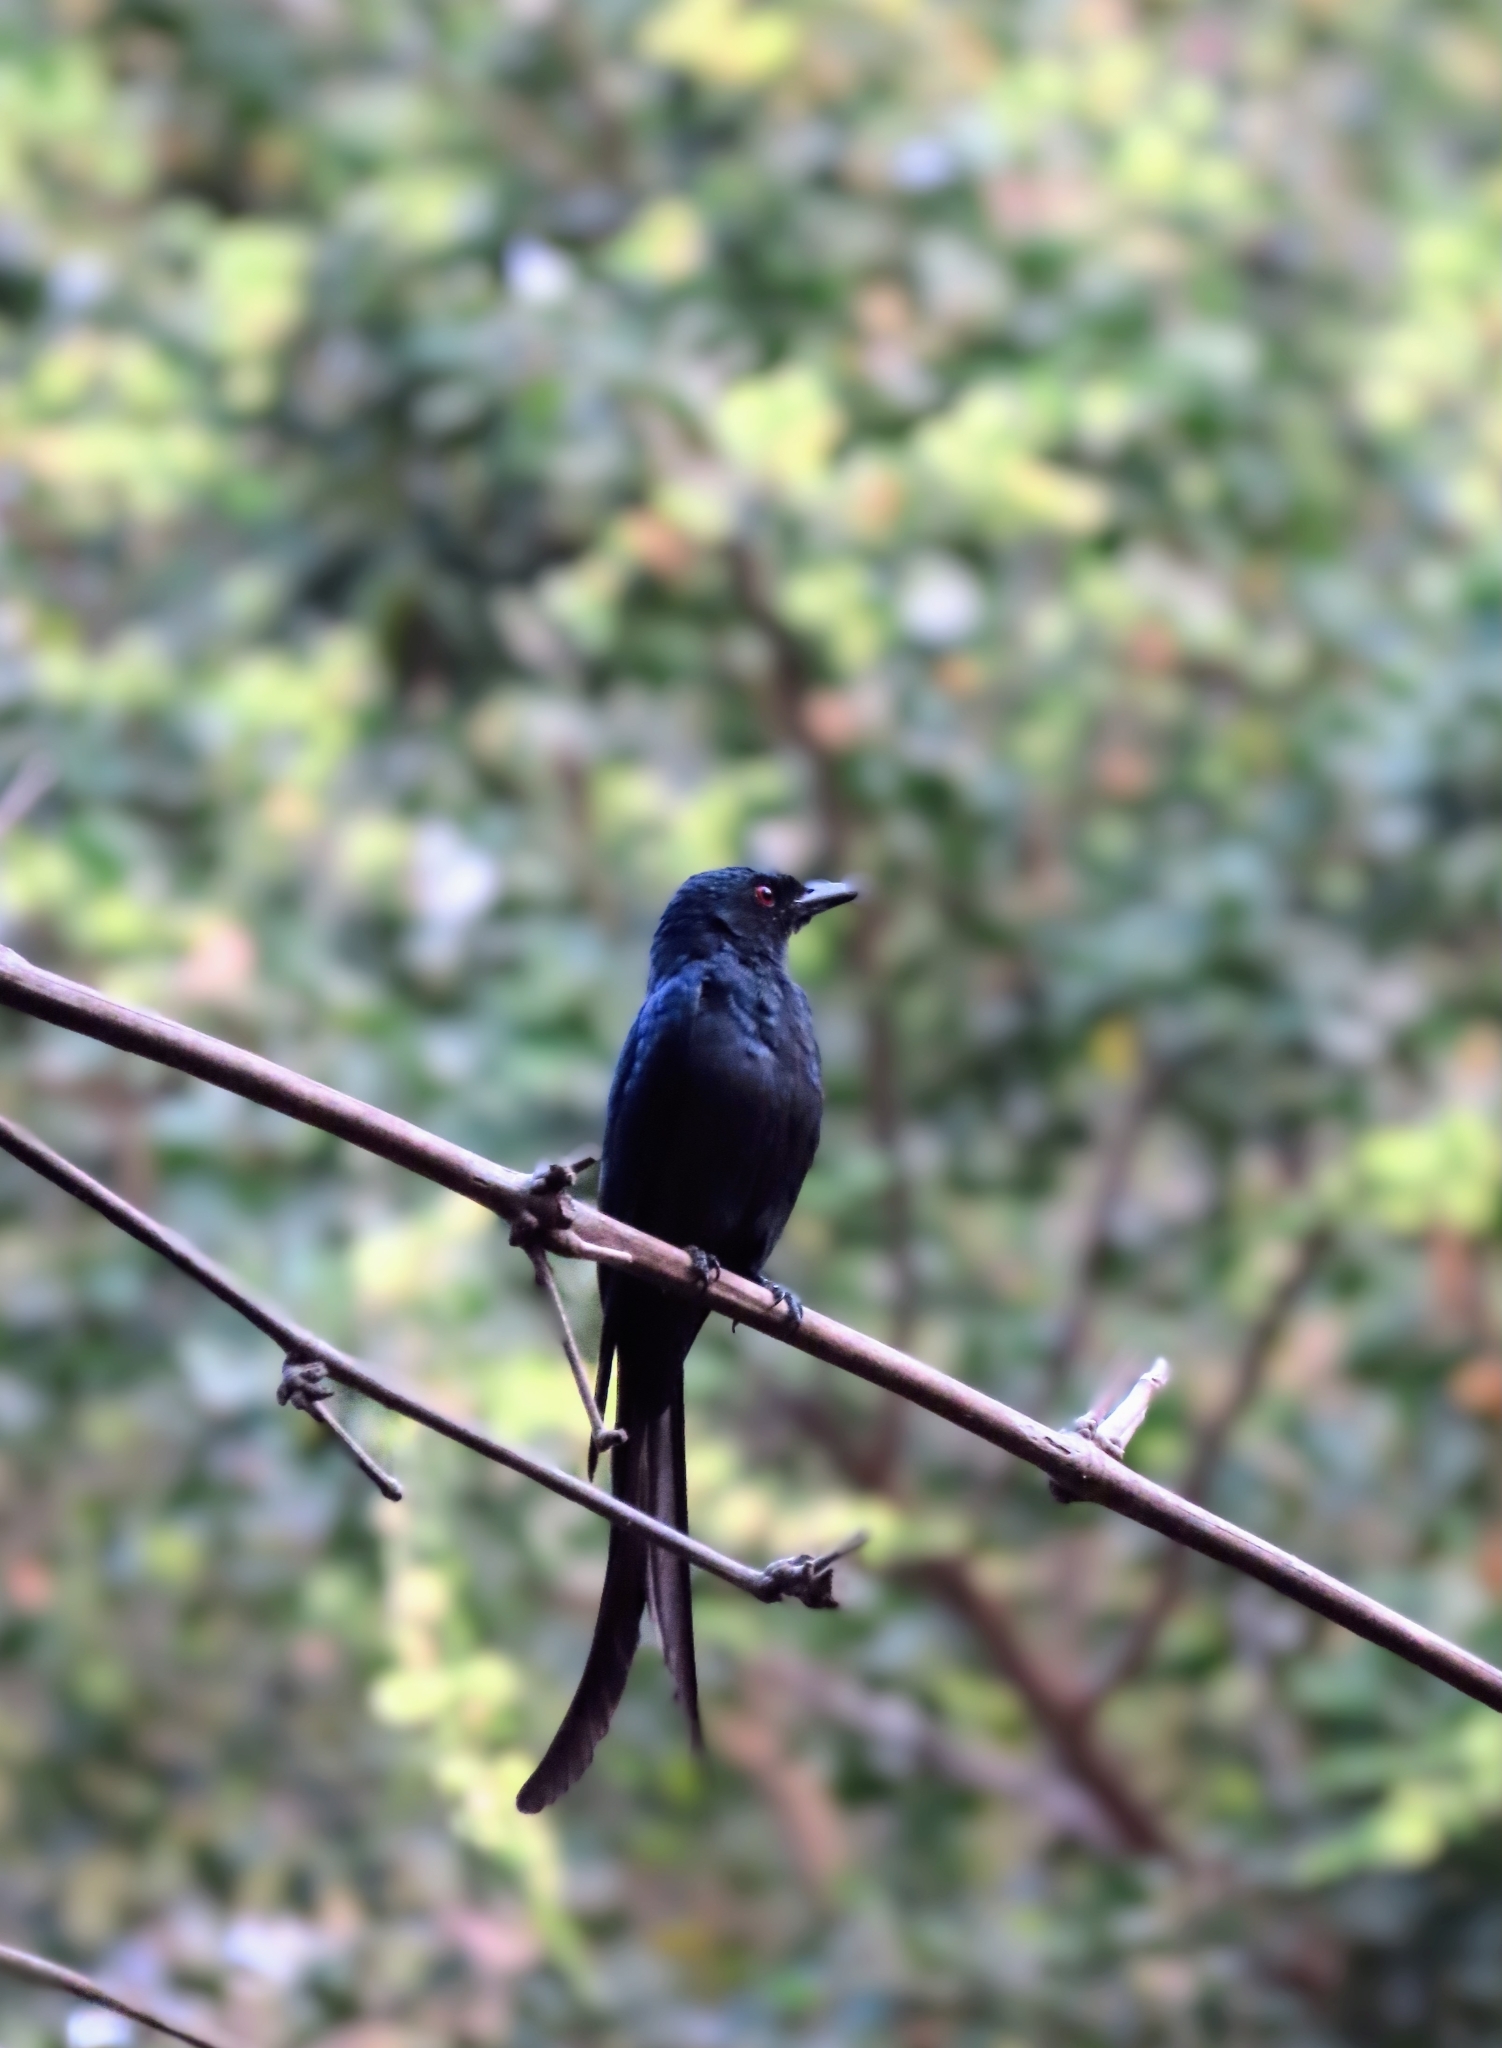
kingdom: Animalia
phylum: Chordata
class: Aves
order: Passeriformes
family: Dicruridae
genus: Dicrurus
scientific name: Dicrurus leucophaeus
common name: Ashy drongo
